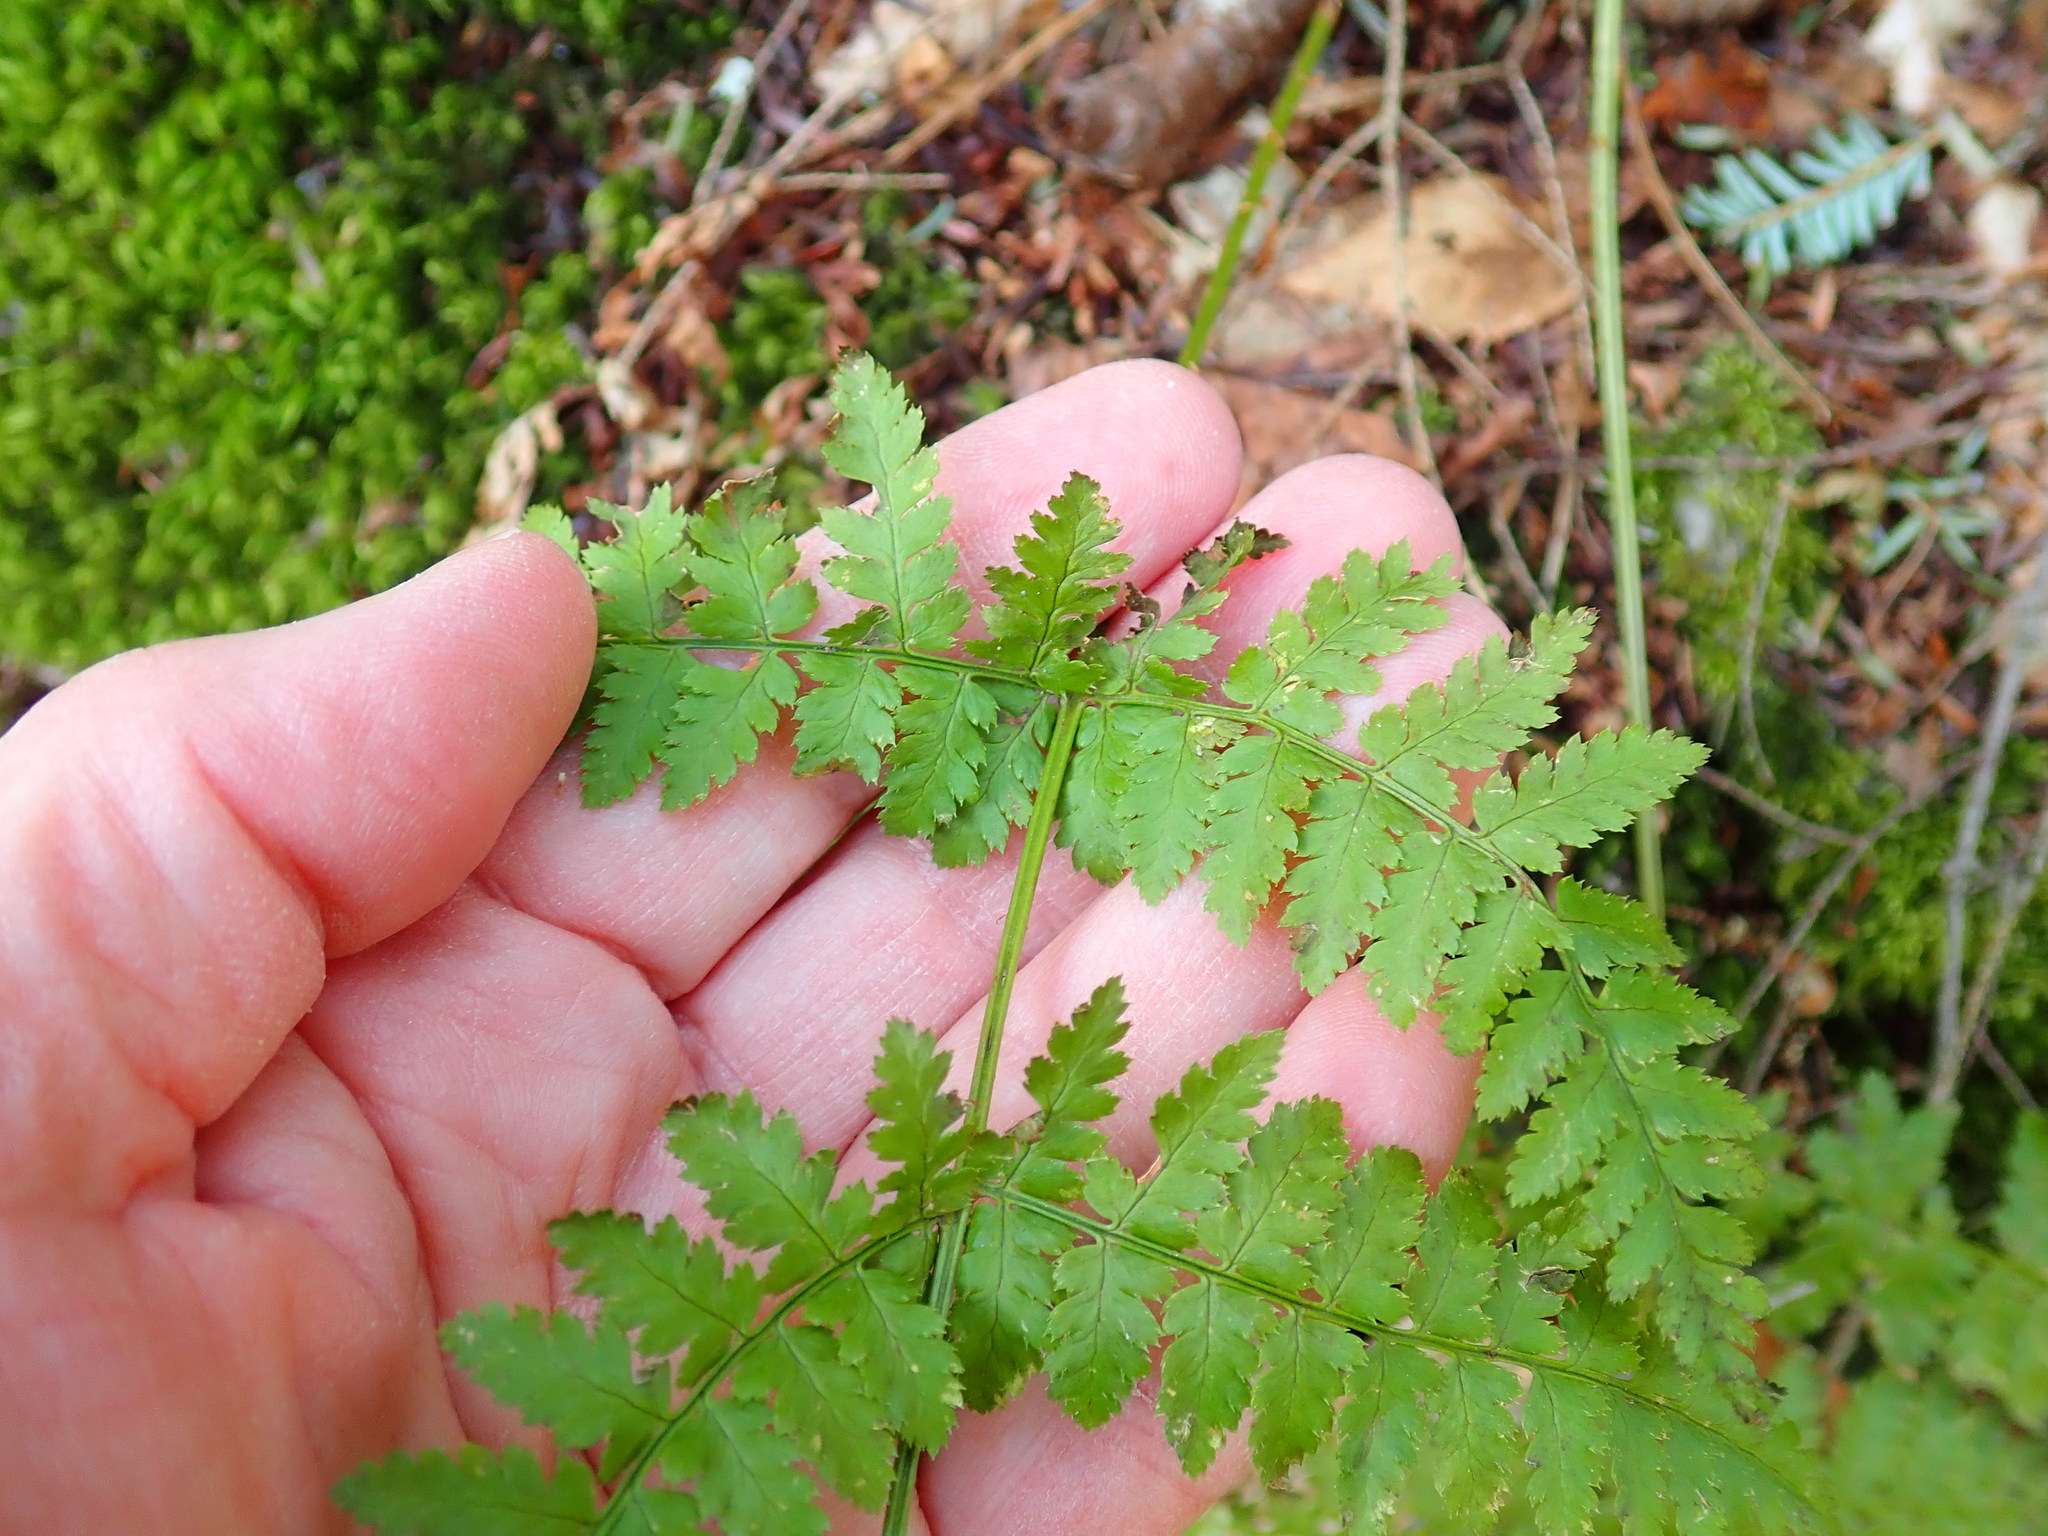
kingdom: Plantae
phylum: Tracheophyta
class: Polypodiopsida
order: Polypodiales
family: Dryopteridaceae
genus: Dryopteris
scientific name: Dryopteris intermedia
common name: Evergreen wood fern
